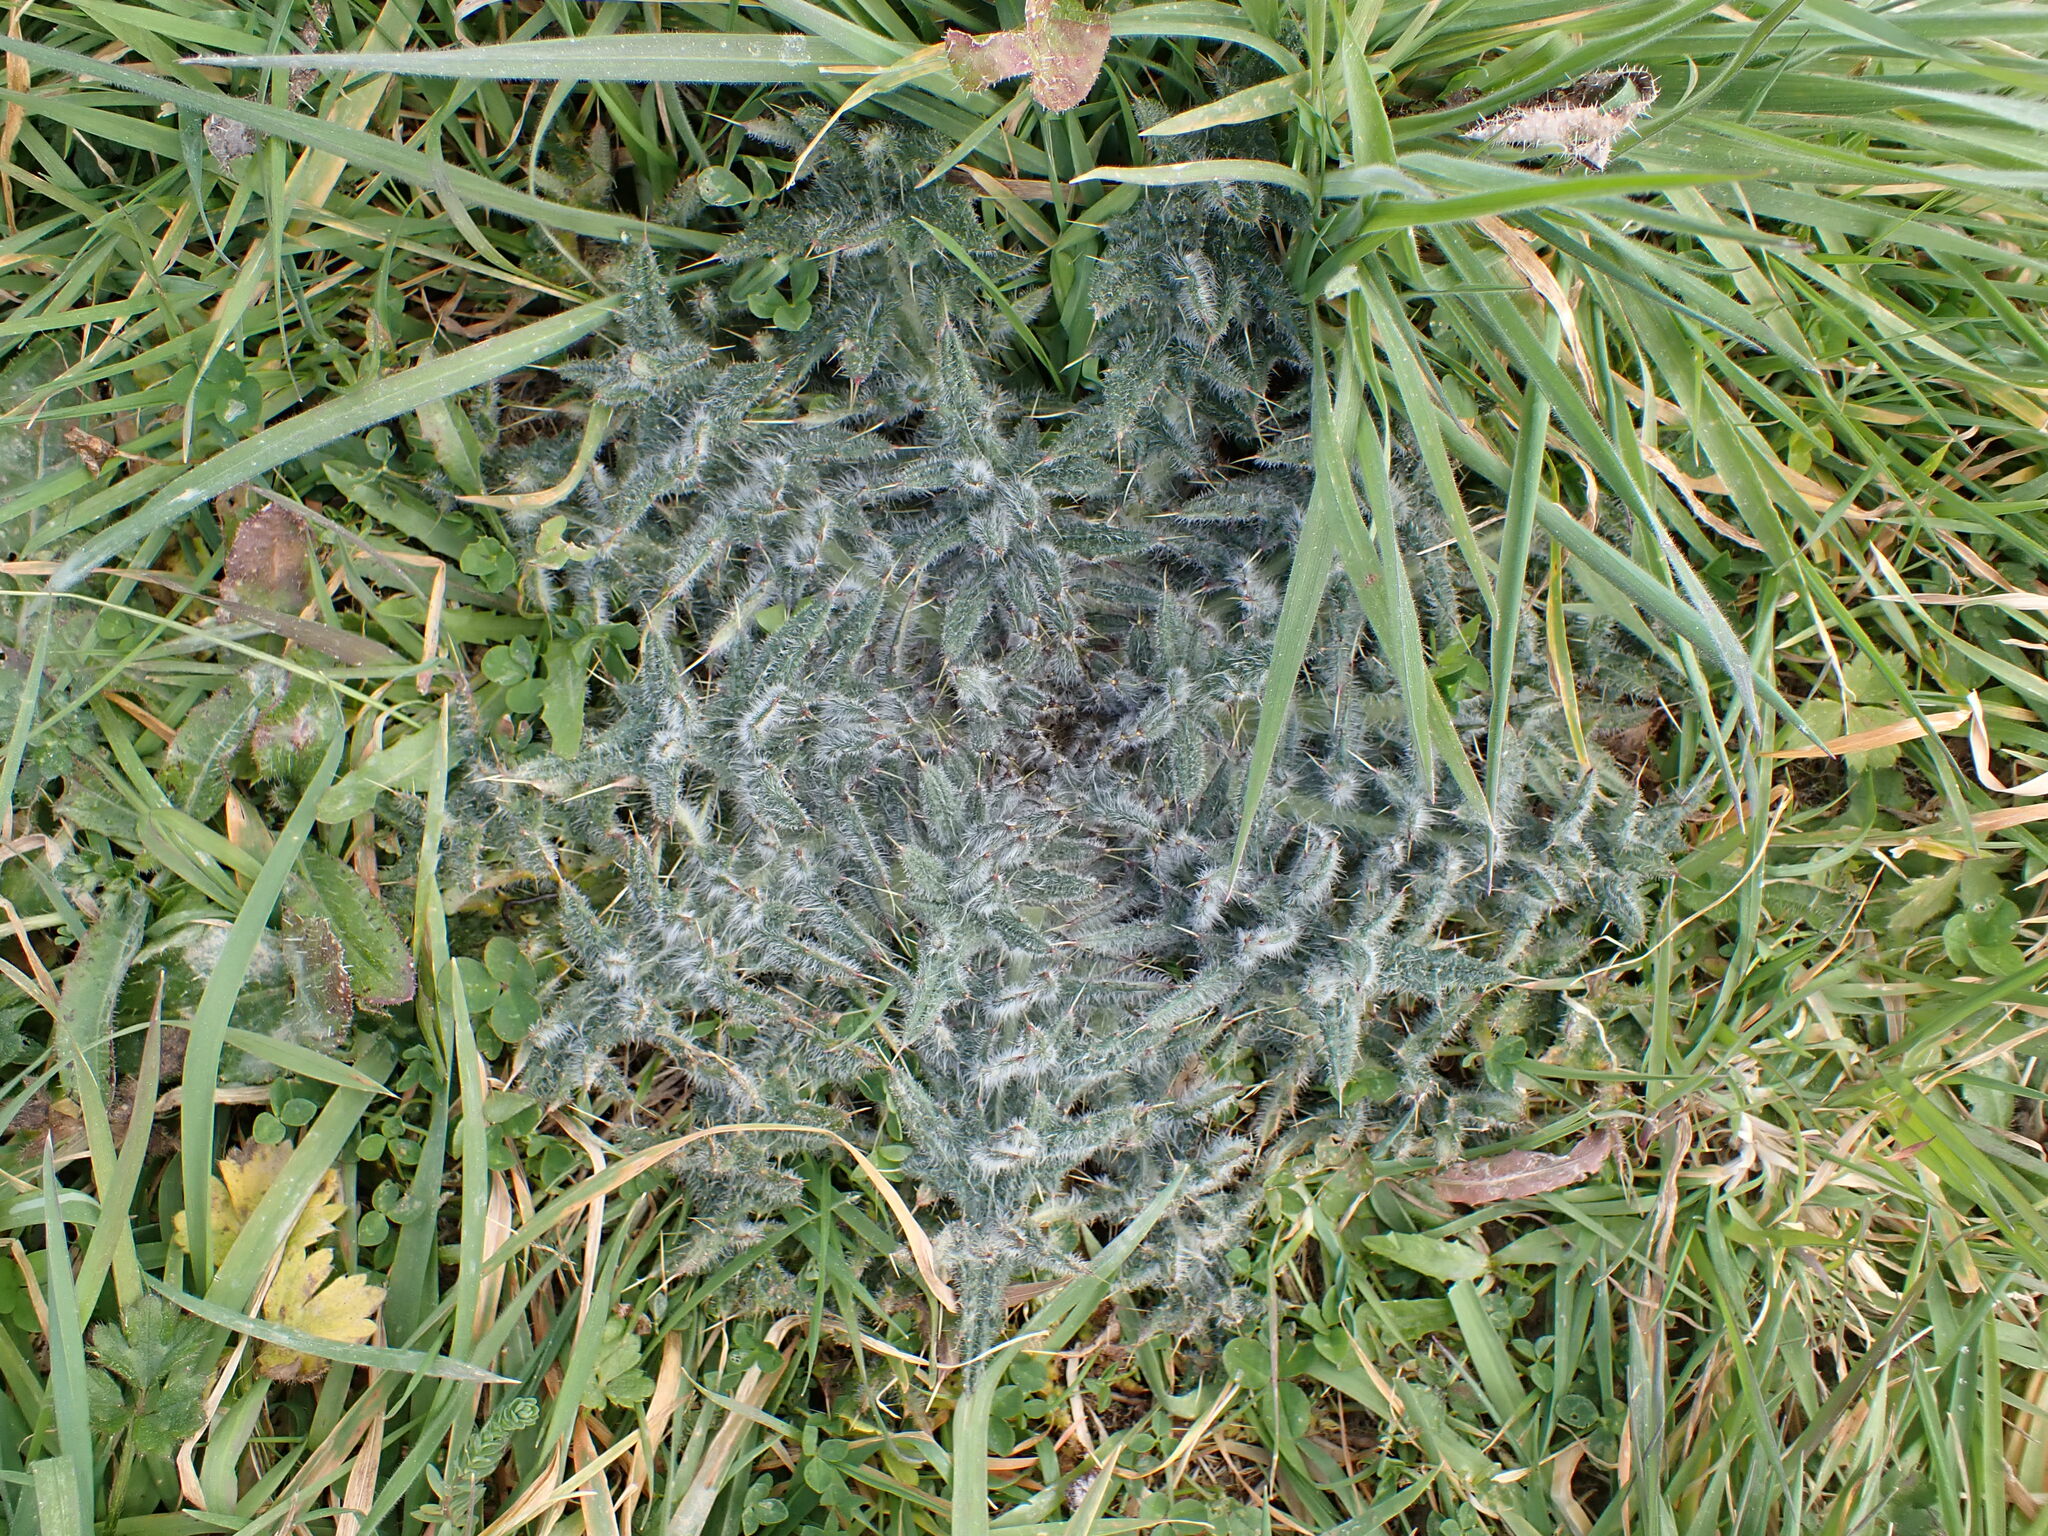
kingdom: Plantae
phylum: Tracheophyta
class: Magnoliopsida
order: Asterales
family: Asteraceae
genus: Cirsium
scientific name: Cirsium vulgare
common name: Bull thistle
